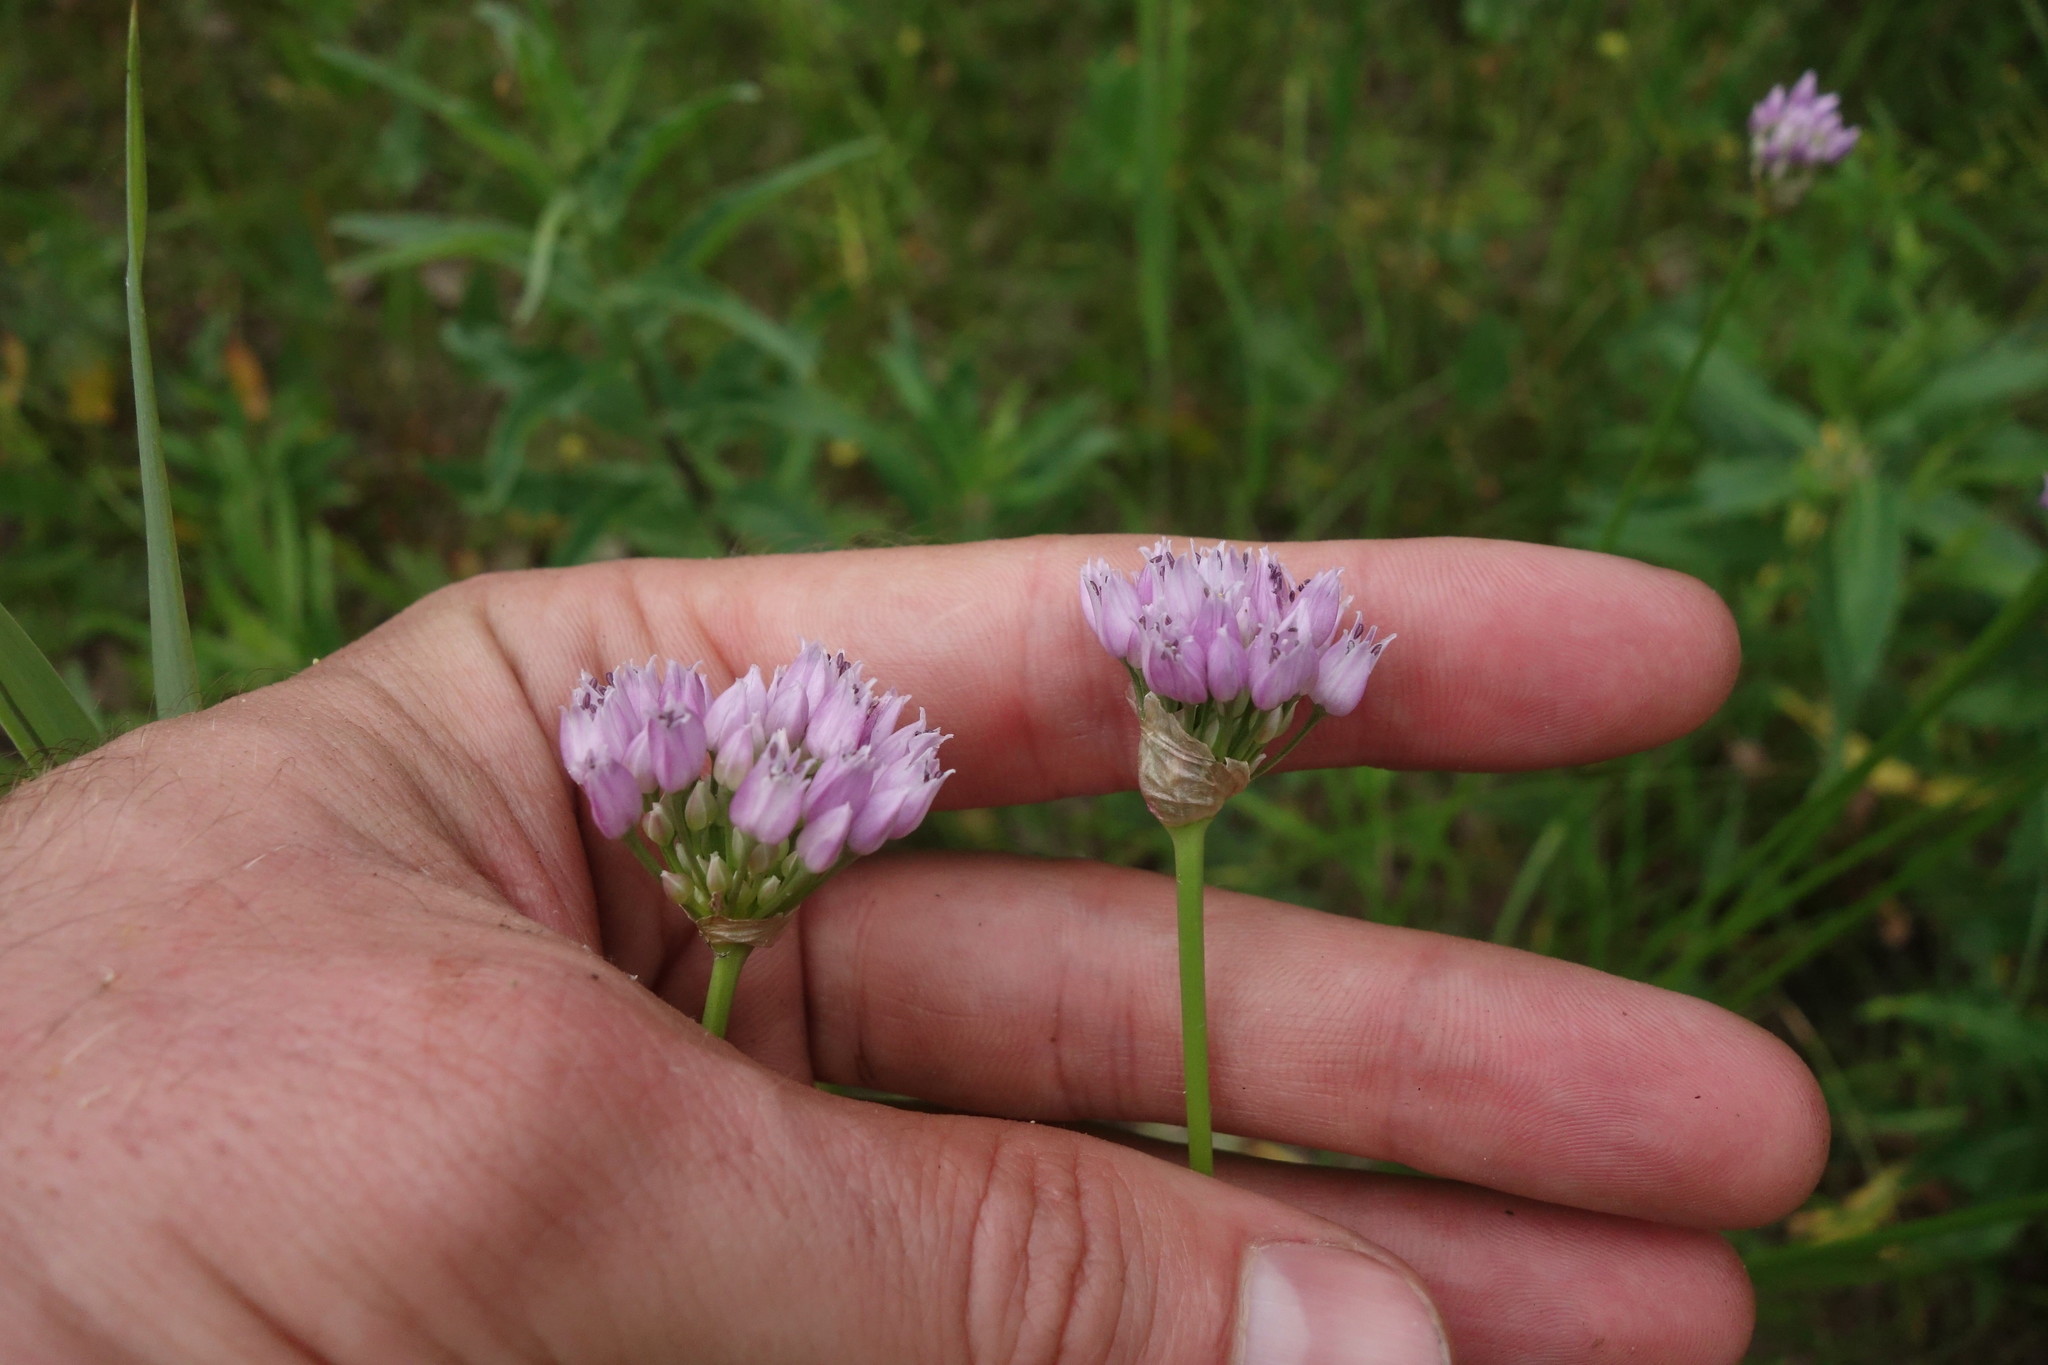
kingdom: Plantae
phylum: Tracheophyta
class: Liliopsida
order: Asparagales
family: Amaryllidaceae
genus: Allium
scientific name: Allium angulosum
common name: Mouse garlic
